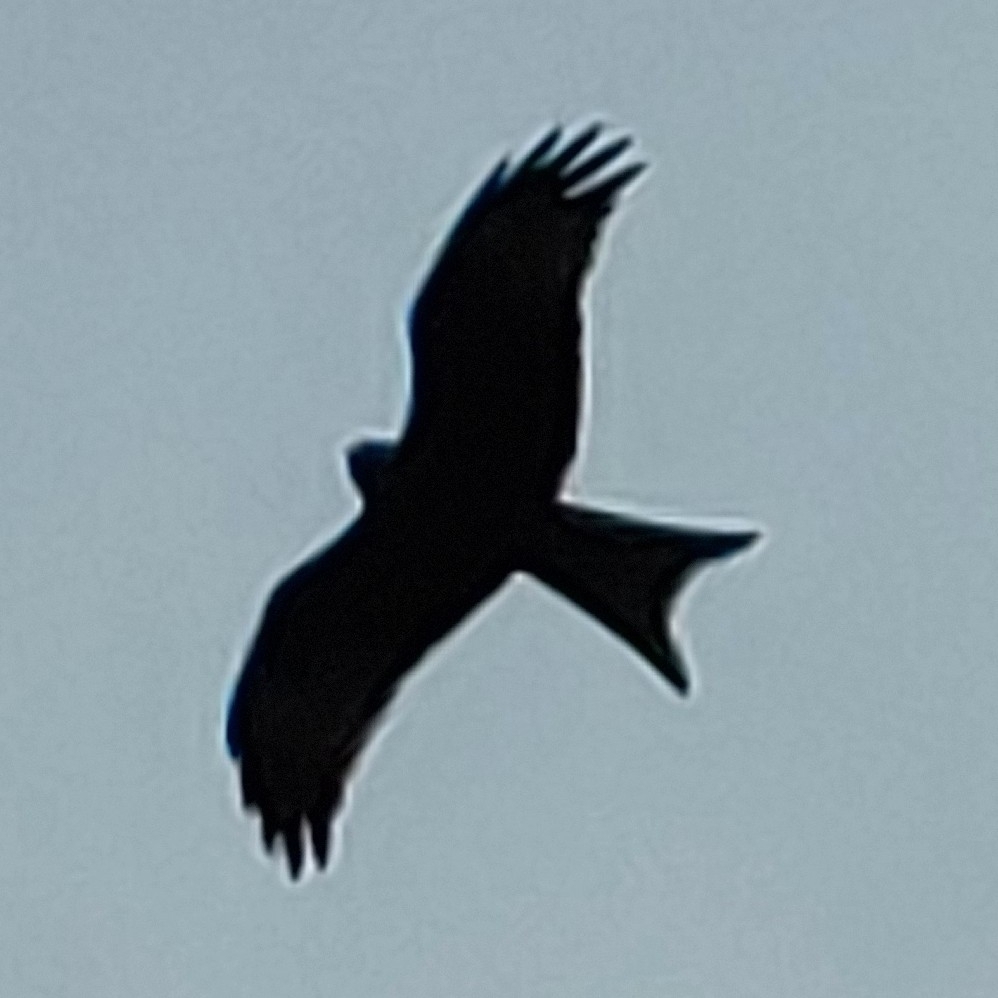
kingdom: Animalia
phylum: Chordata
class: Aves
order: Accipitriformes
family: Accipitridae
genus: Milvus
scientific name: Milvus milvus
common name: Red kite
